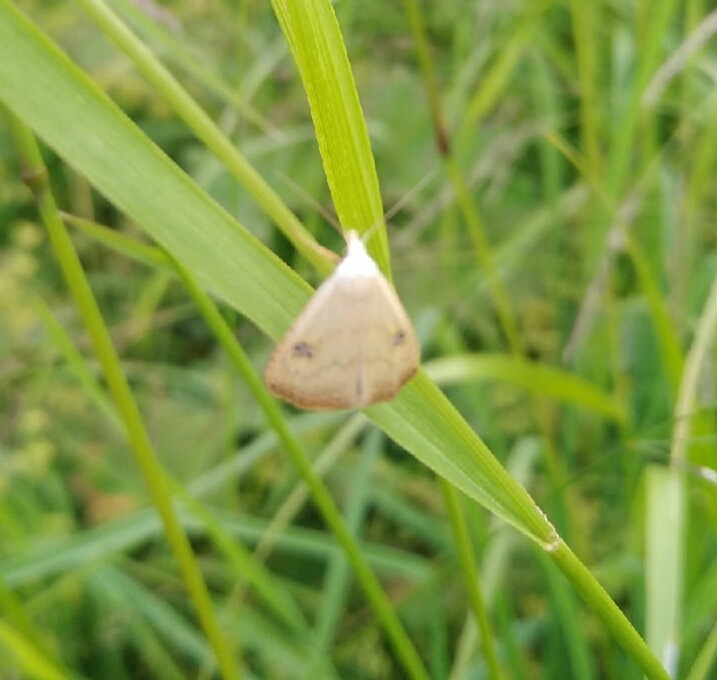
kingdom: Animalia
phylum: Arthropoda
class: Insecta
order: Lepidoptera
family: Erebidae
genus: Rivula
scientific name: Rivula sericealis
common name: Straw dot
